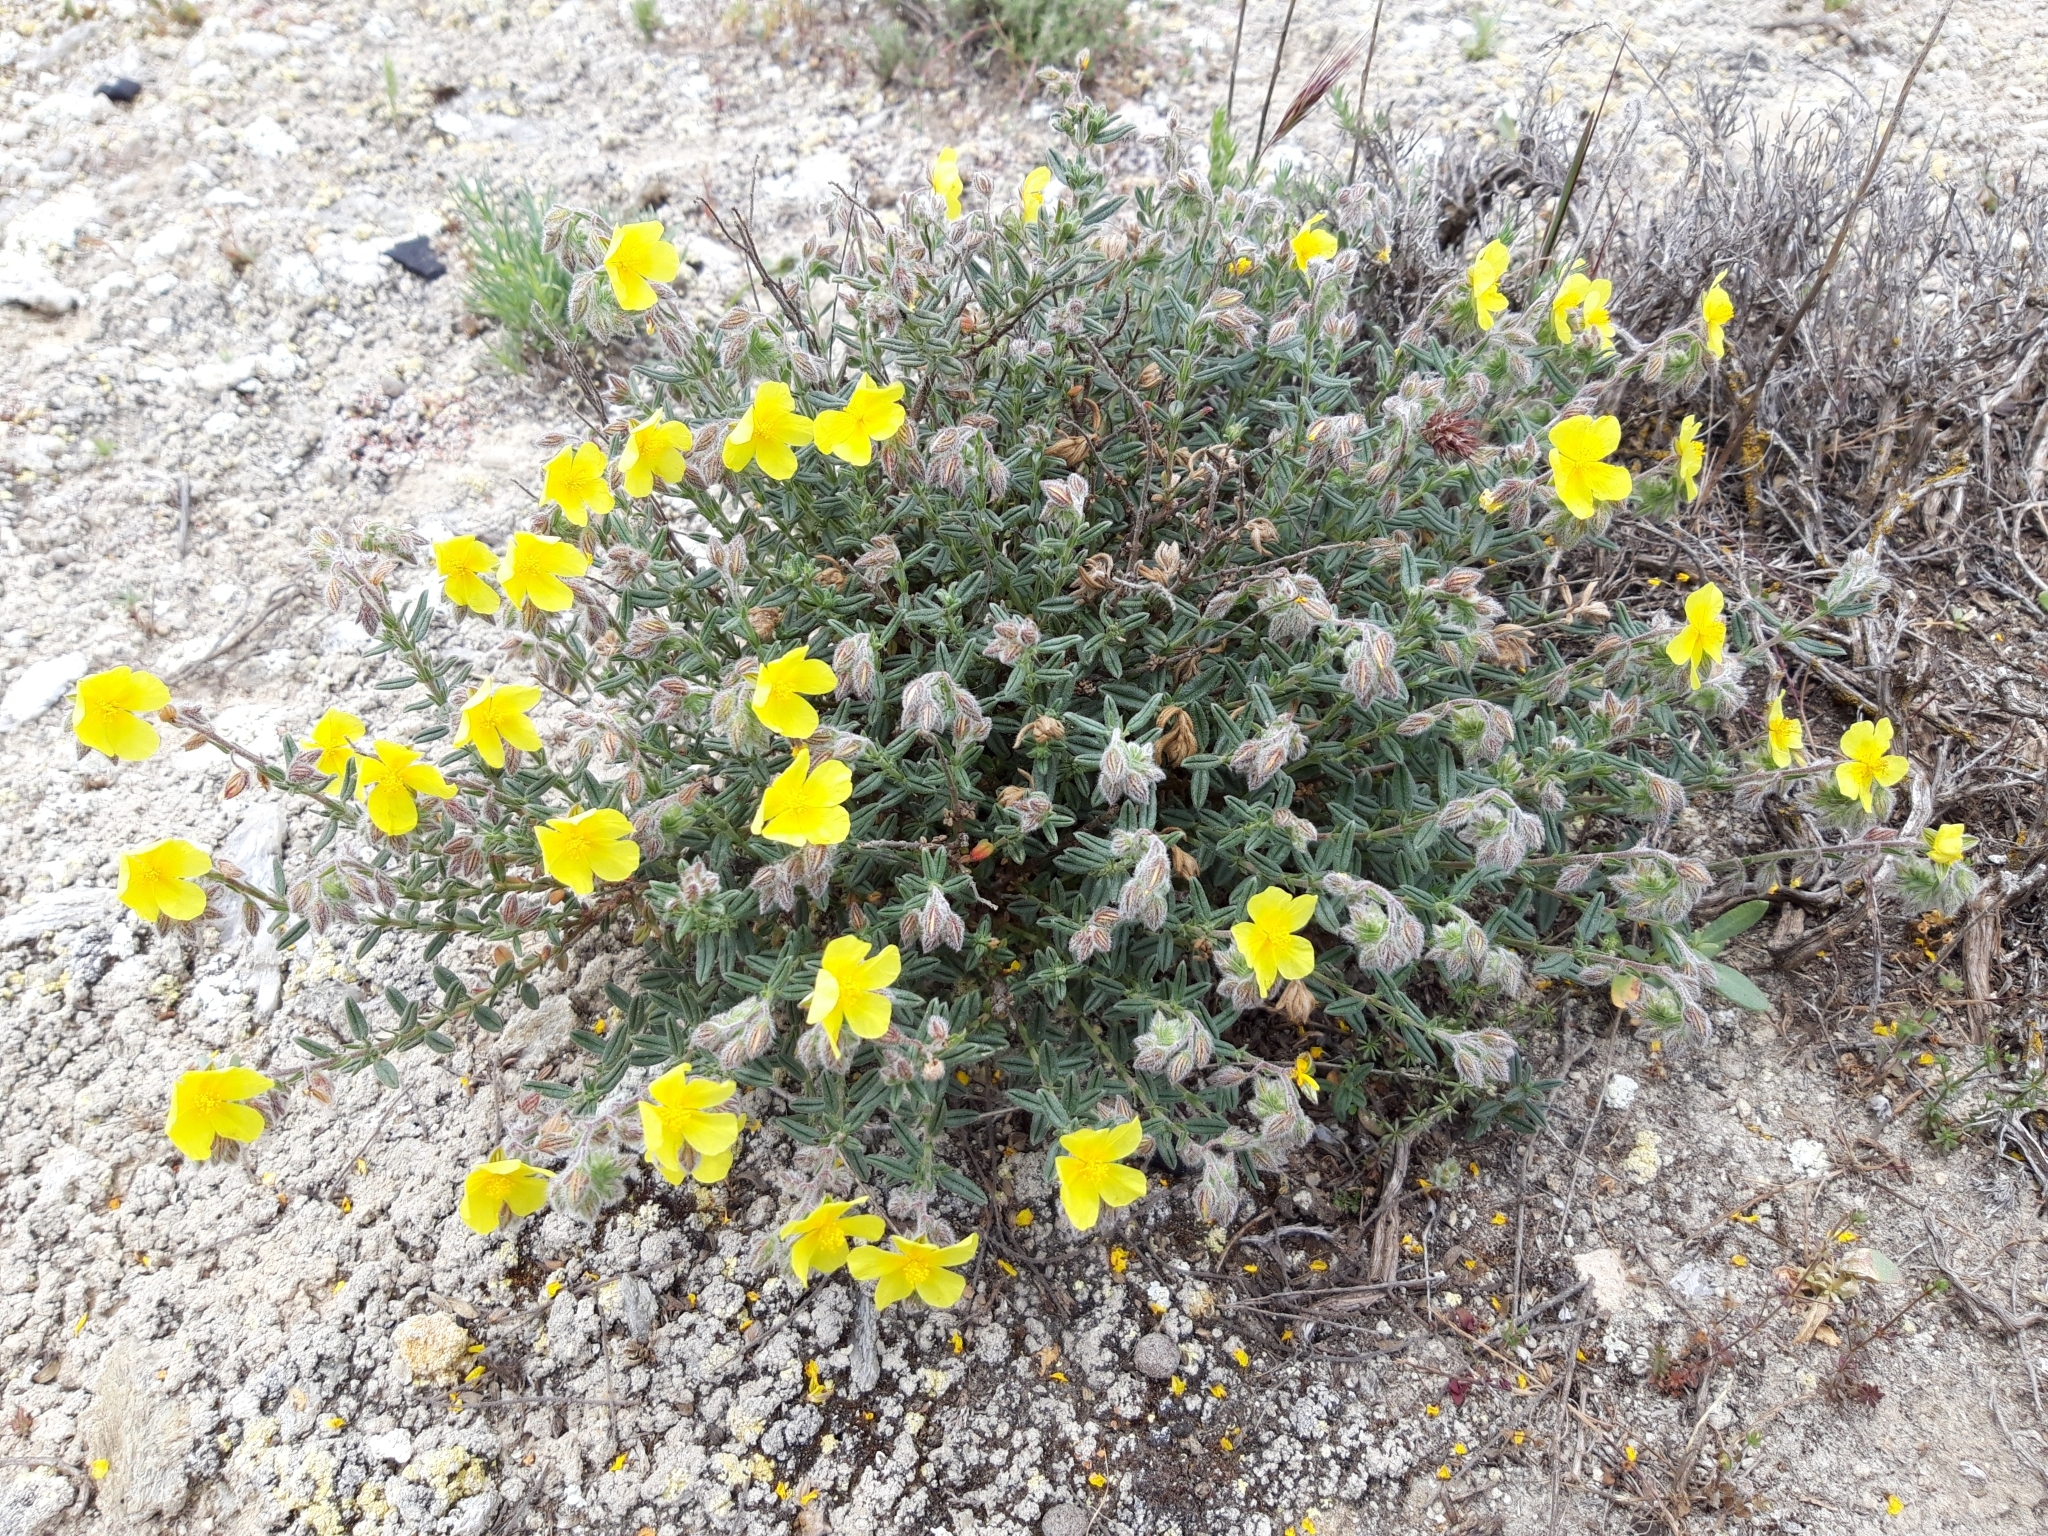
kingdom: Plantae
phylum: Tracheophyta
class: Magnoliopsida
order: Malvales
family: Cistaceae
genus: Helianthemum
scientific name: Helianthemum hirtum
